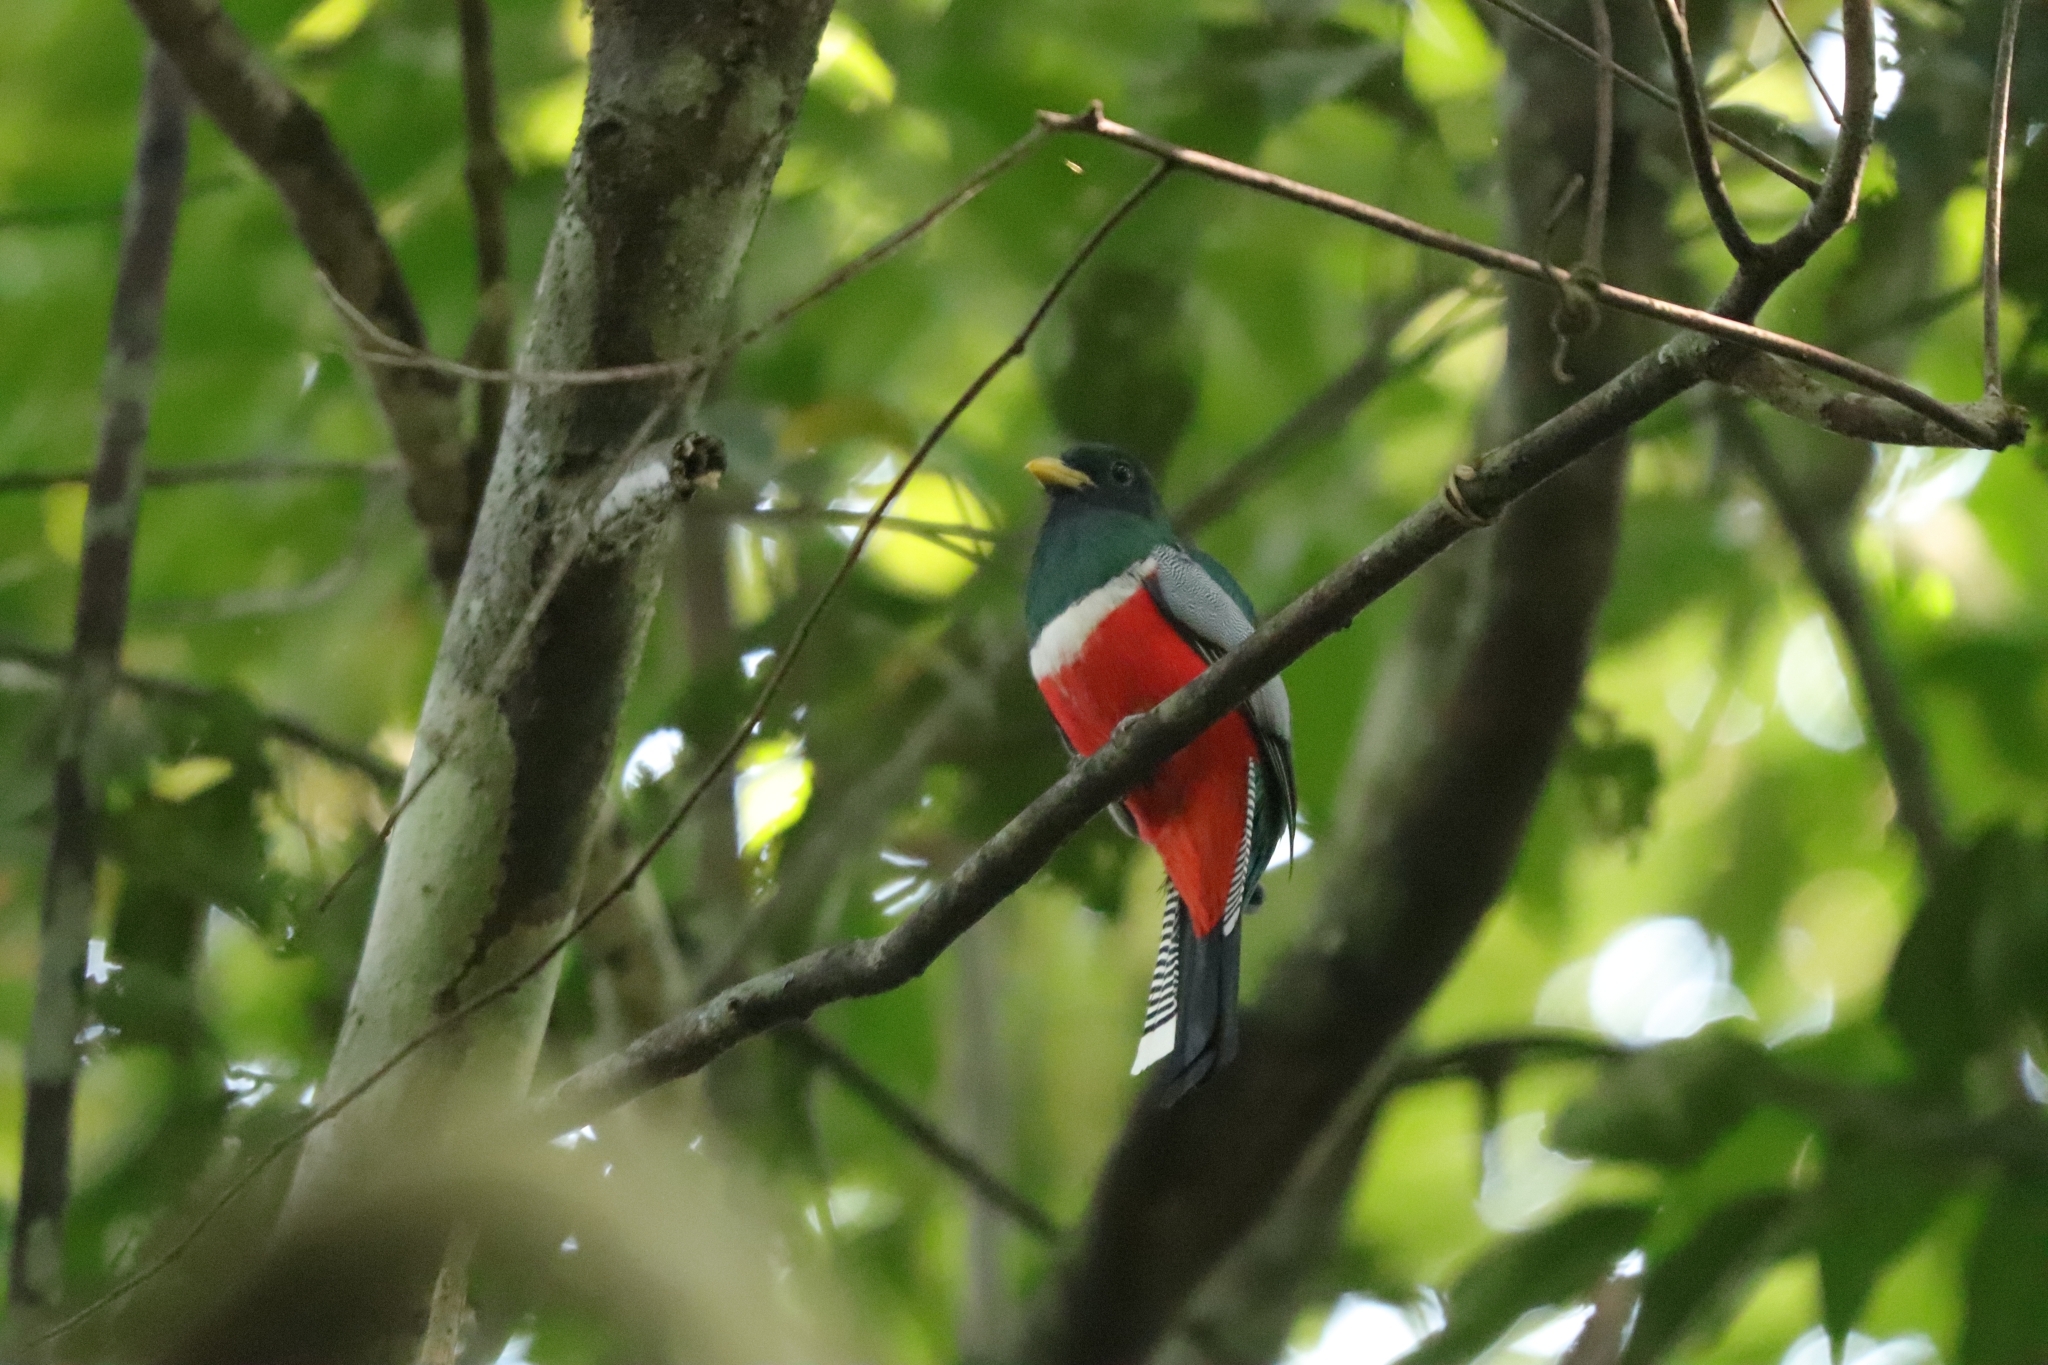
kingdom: Animalia
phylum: Chordata
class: Aves
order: Trogoniformes
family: Trogonidae
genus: Trogon
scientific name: Trogon collaris
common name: Collared trogon
